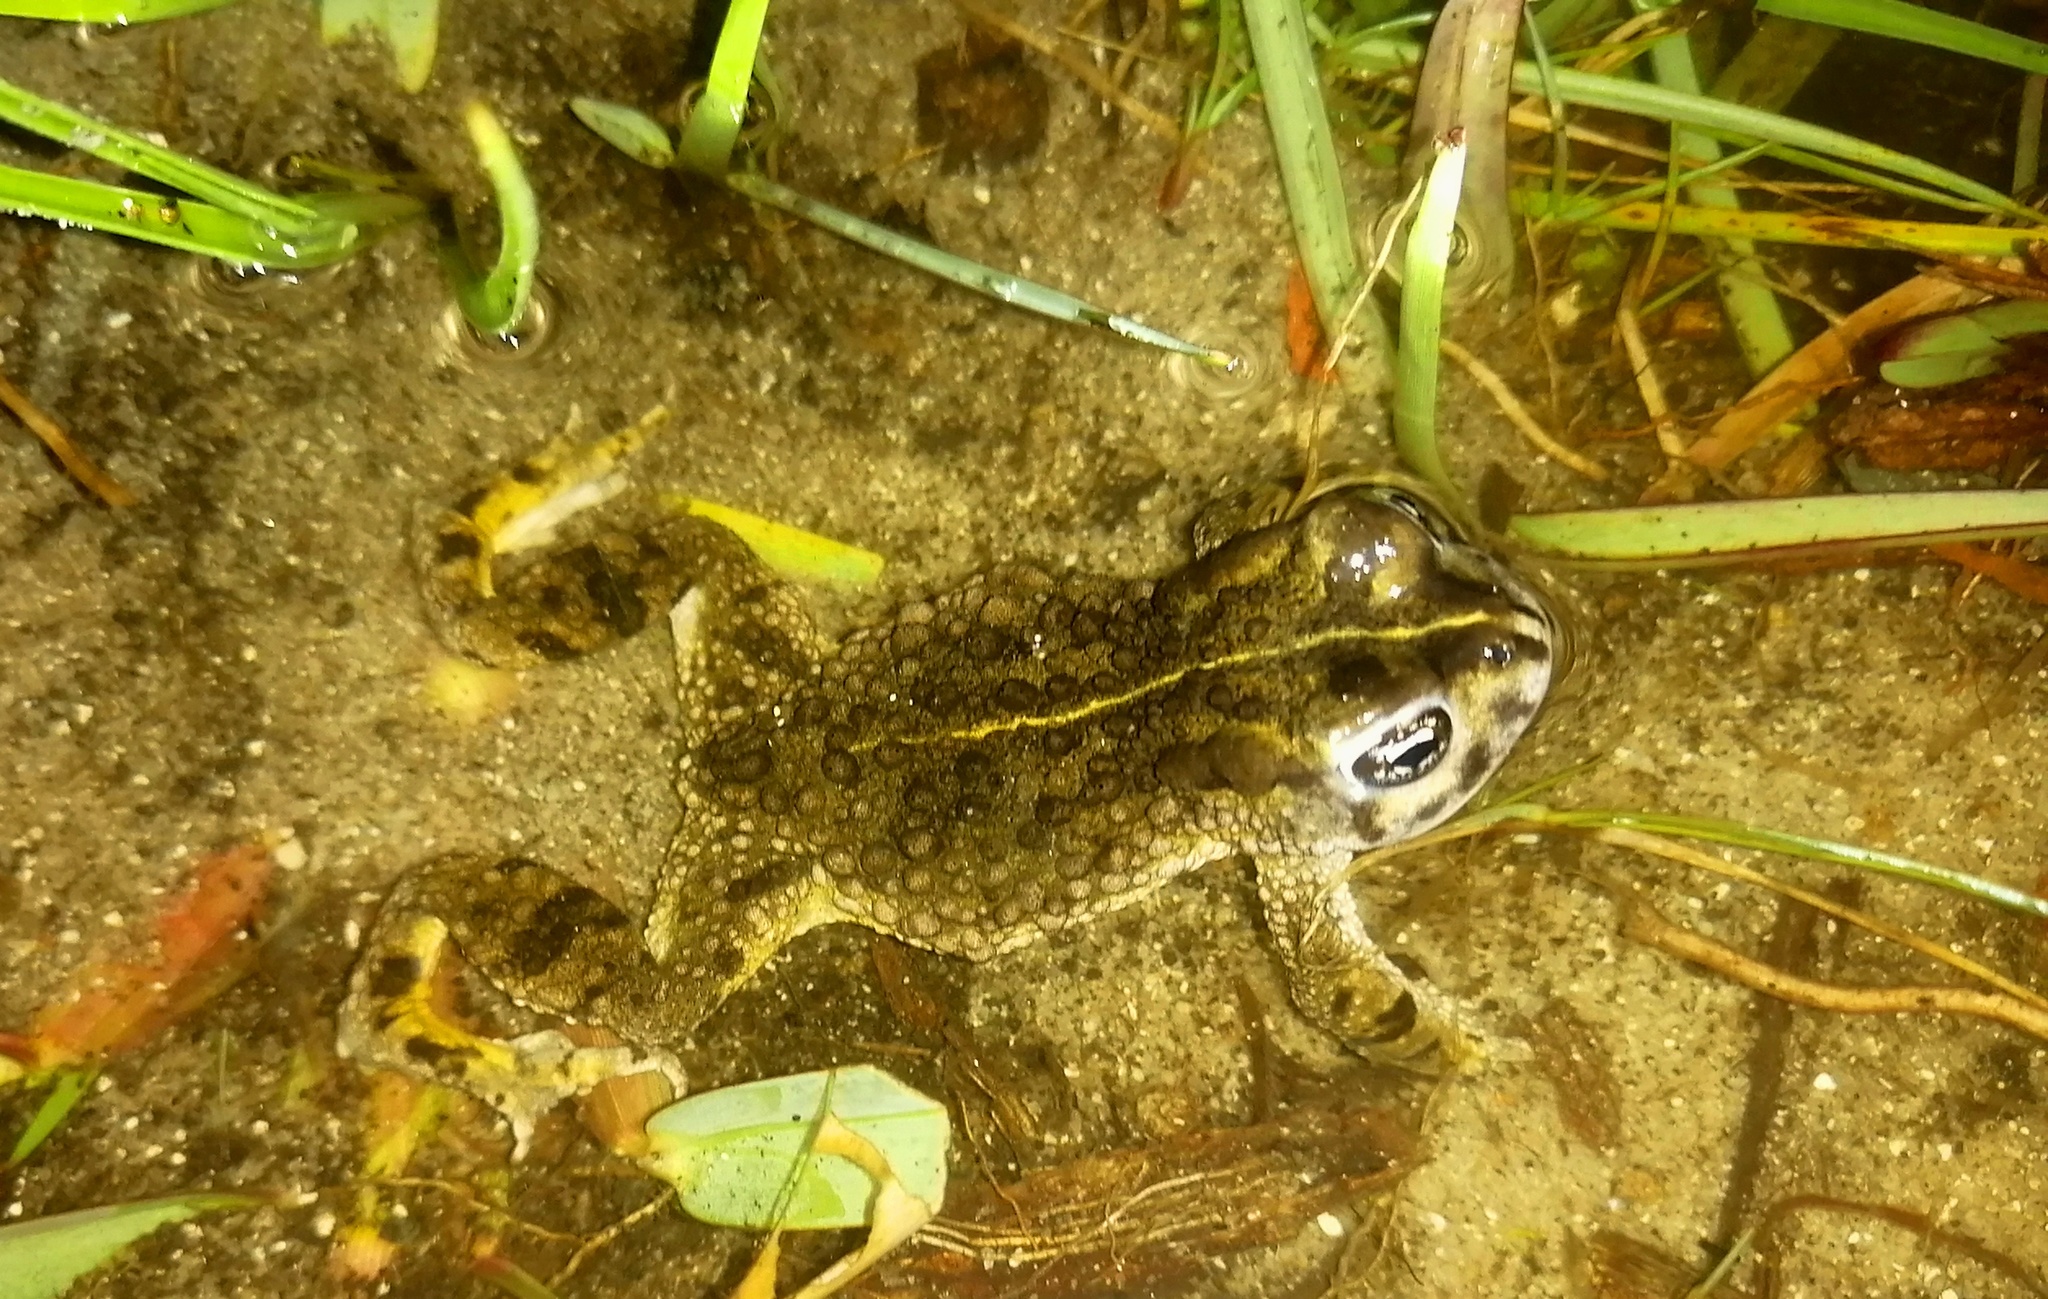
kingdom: Animalia
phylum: Chordata
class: Amphibia
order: Anura
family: Bufonidae
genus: Vandijkophrynus
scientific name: Vandijkophrynus angusticeps
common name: Sand toad
